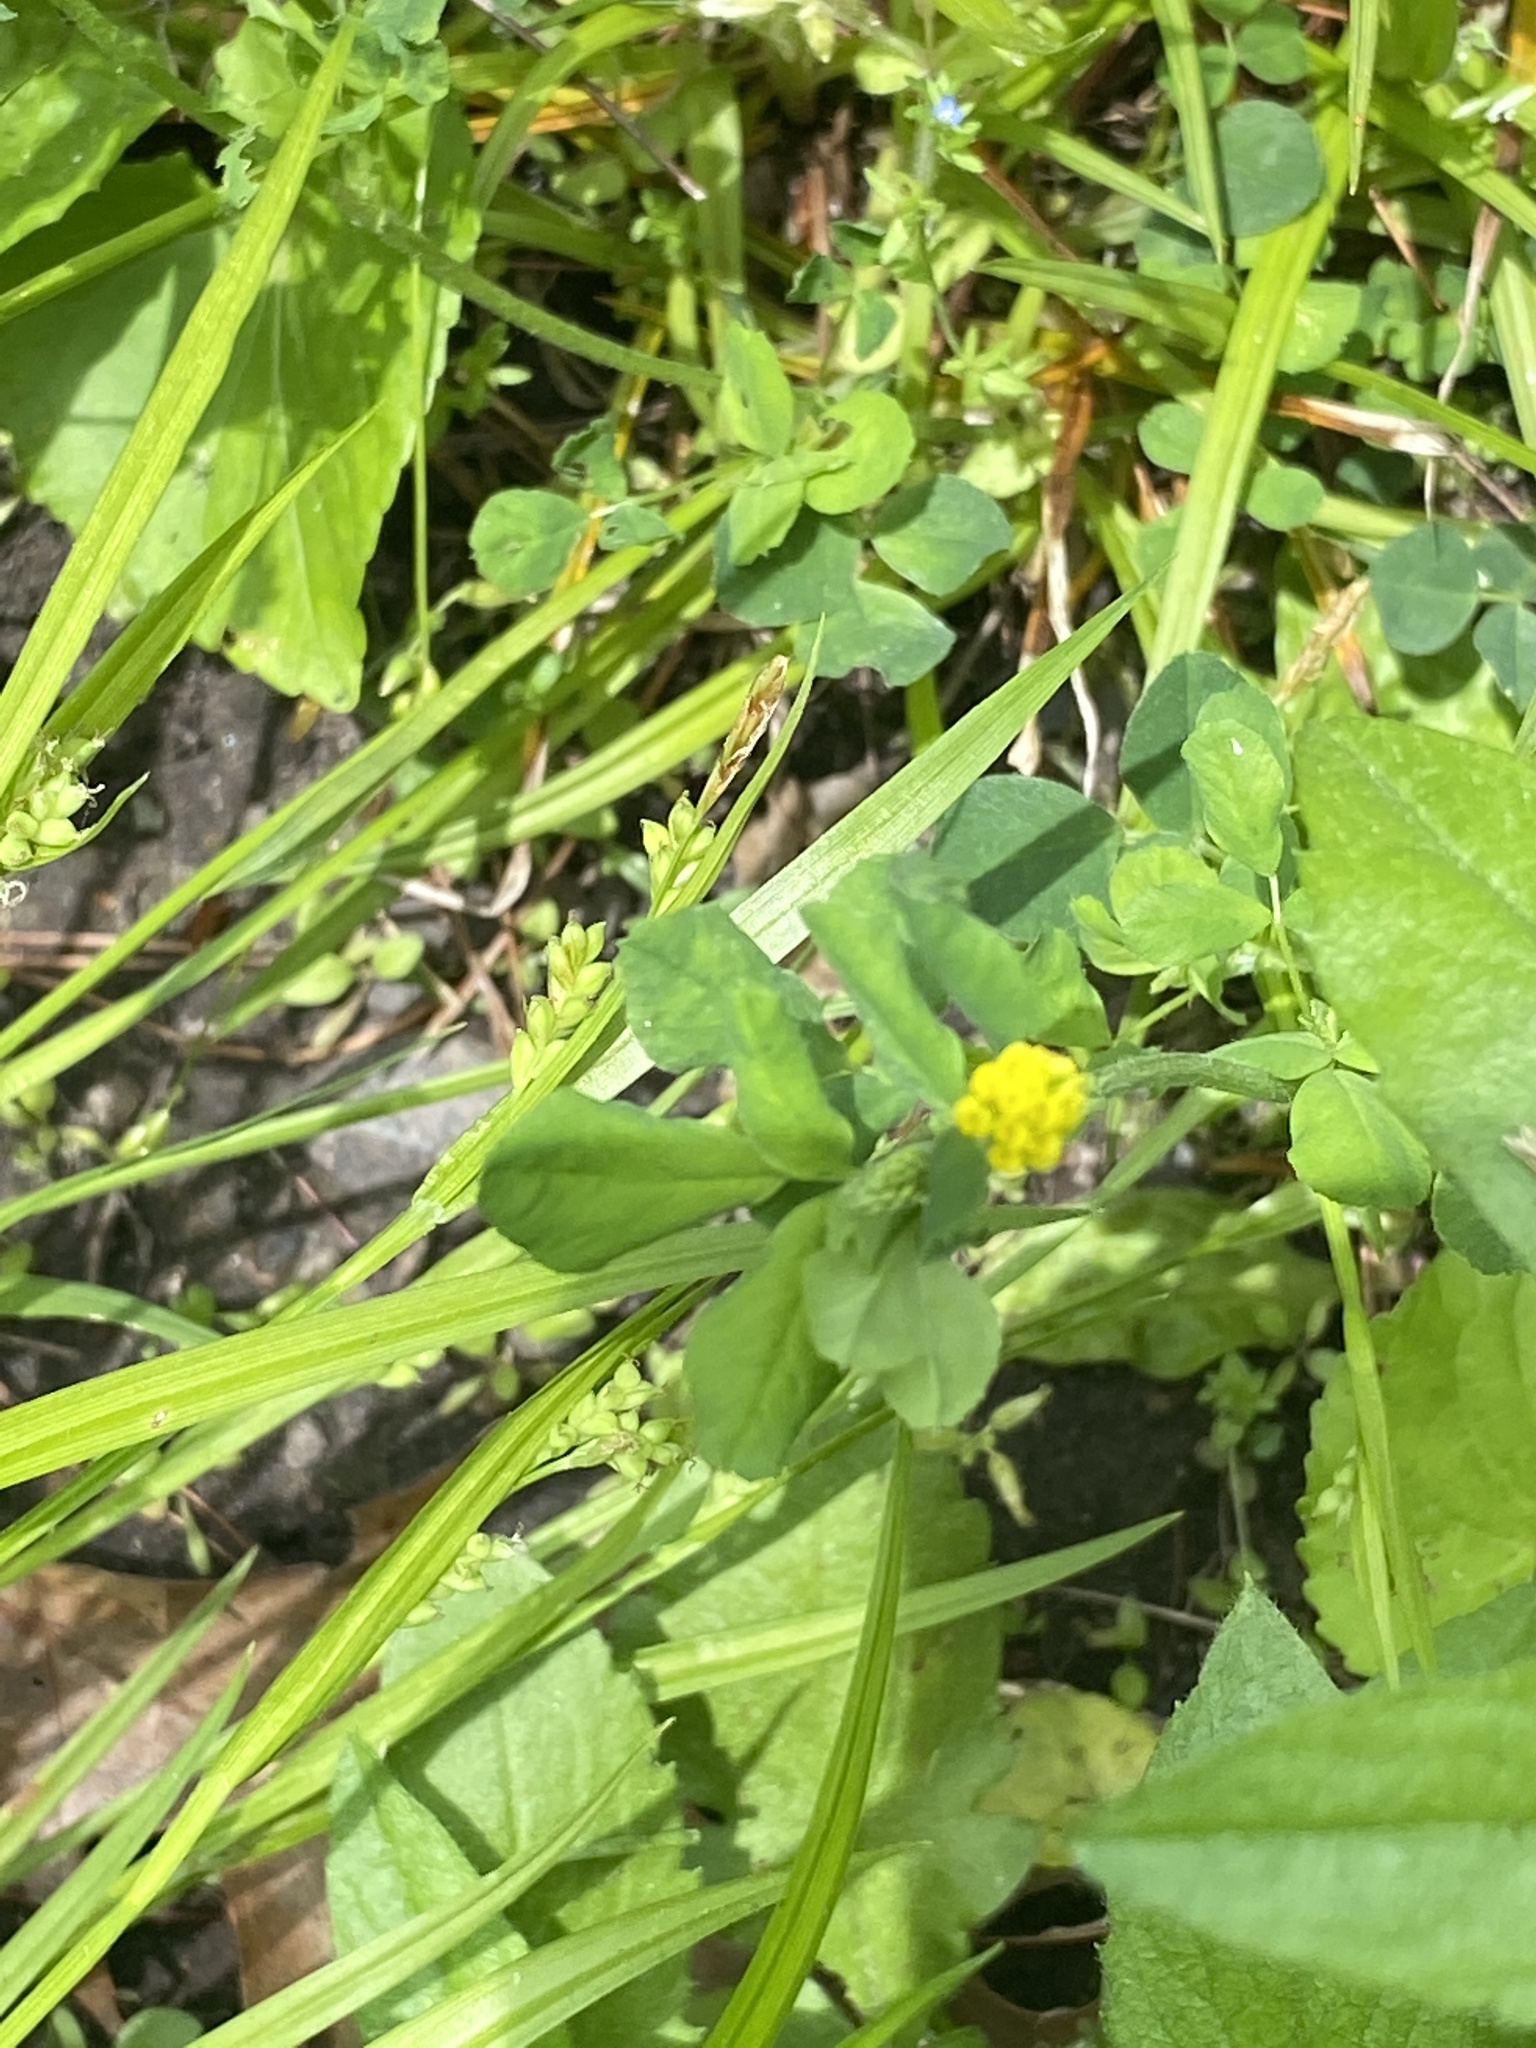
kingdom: Plantae
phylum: Tracheophyta
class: Magnoliopsida
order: Fabales
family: Fabaceae
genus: Medicago
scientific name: Medicago lupulina
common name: Black medick
